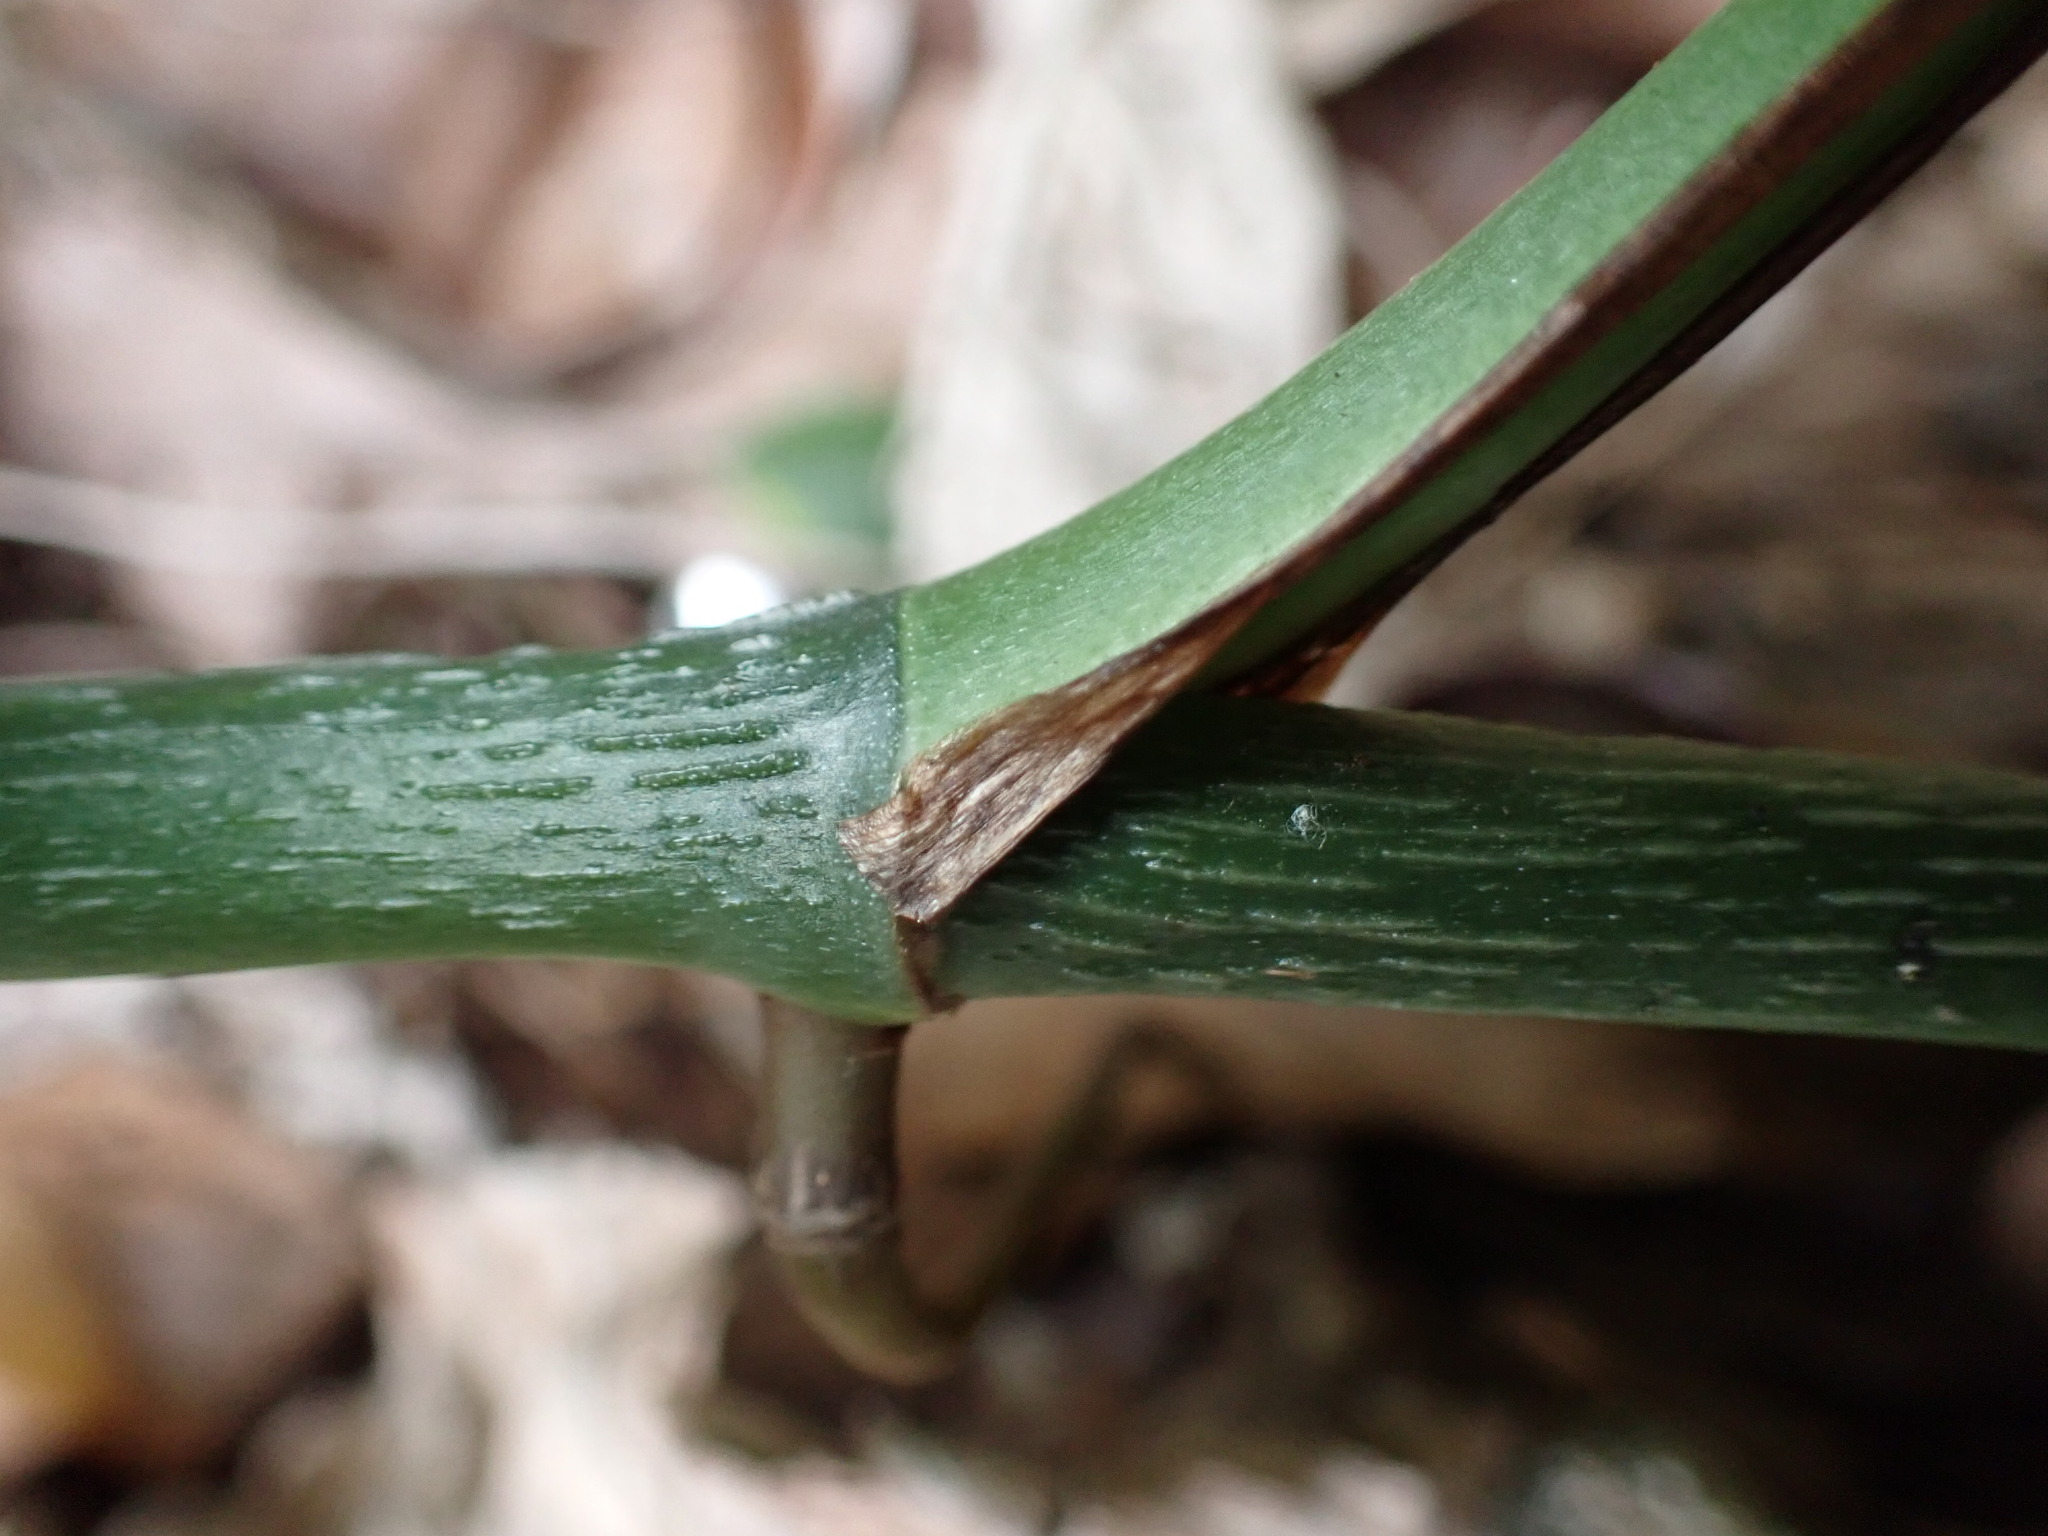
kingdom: Plantae
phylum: Tracheophyta
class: Liliopsida
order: Alismatales
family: Araceae
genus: Epipremnum
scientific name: Epipremnum aureum
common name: Golden hunter's-robe
